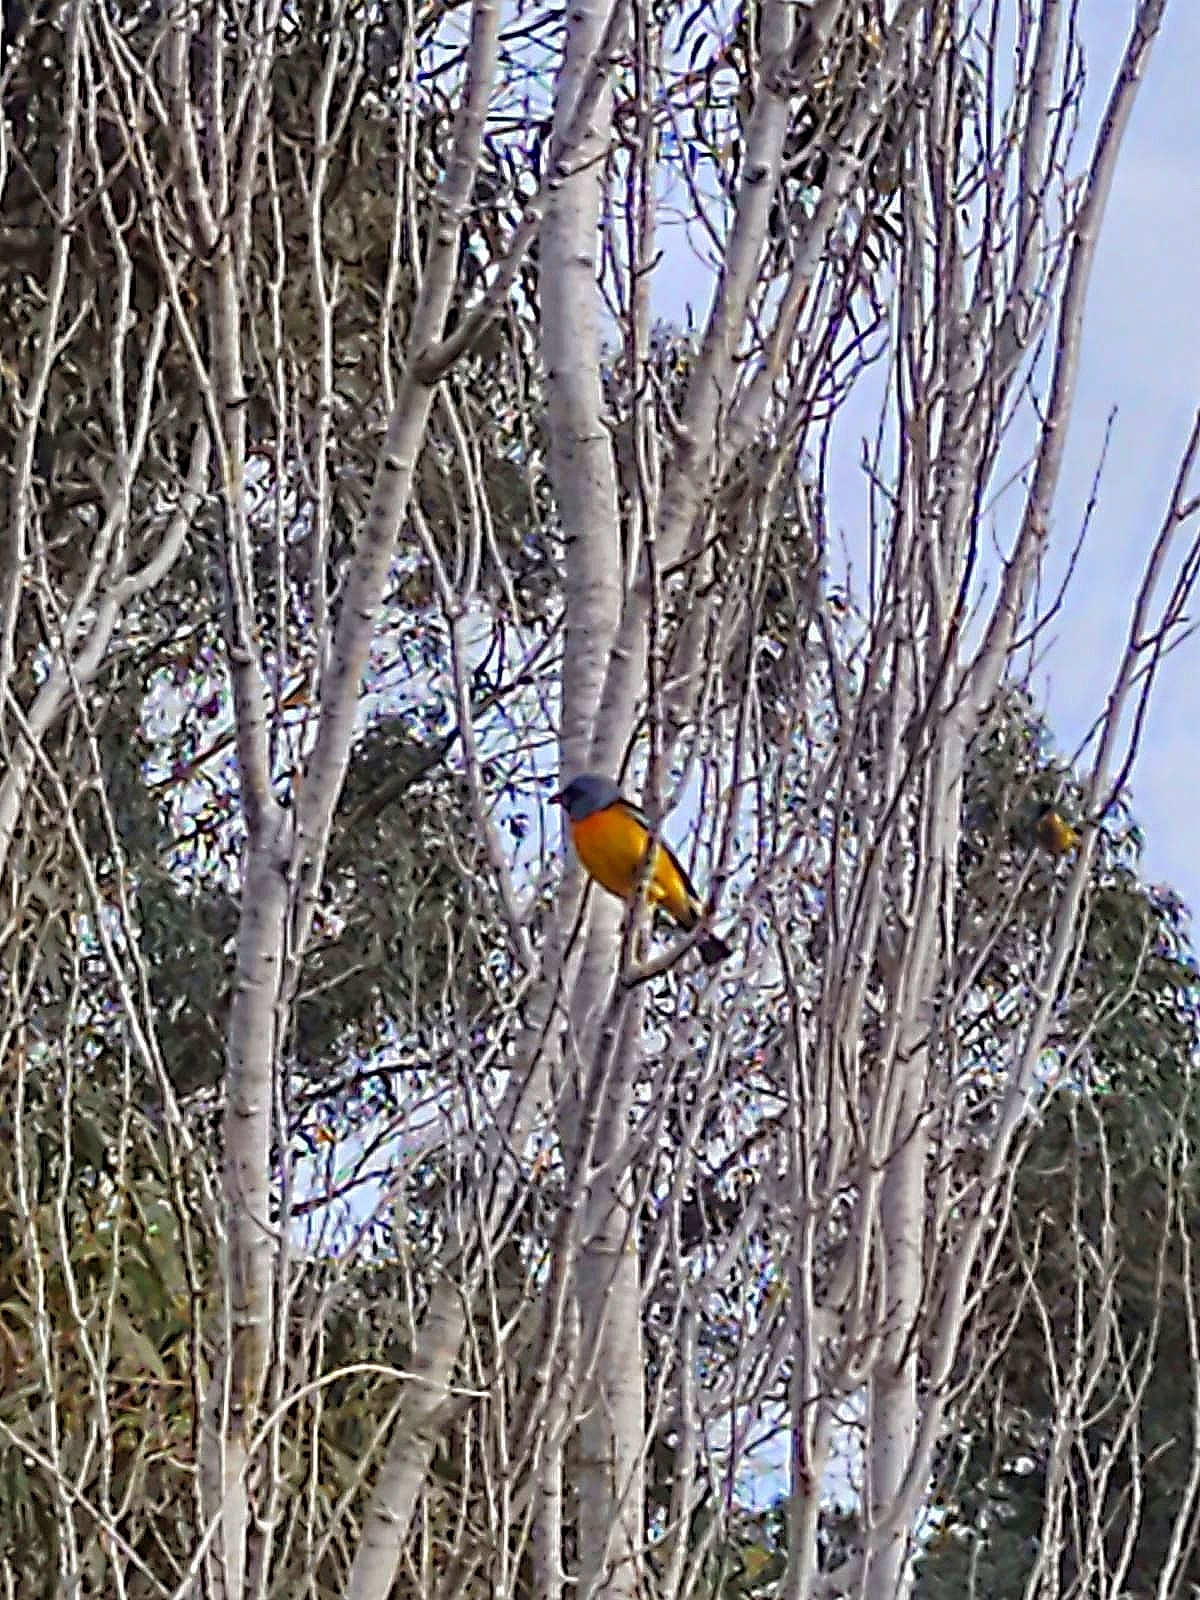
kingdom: Animalia
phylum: Chordata
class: Aves
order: Passeriformes
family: Thraupidae
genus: Rauenia
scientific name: Rauenia bonariensis
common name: Blue-and-yellow tanager
